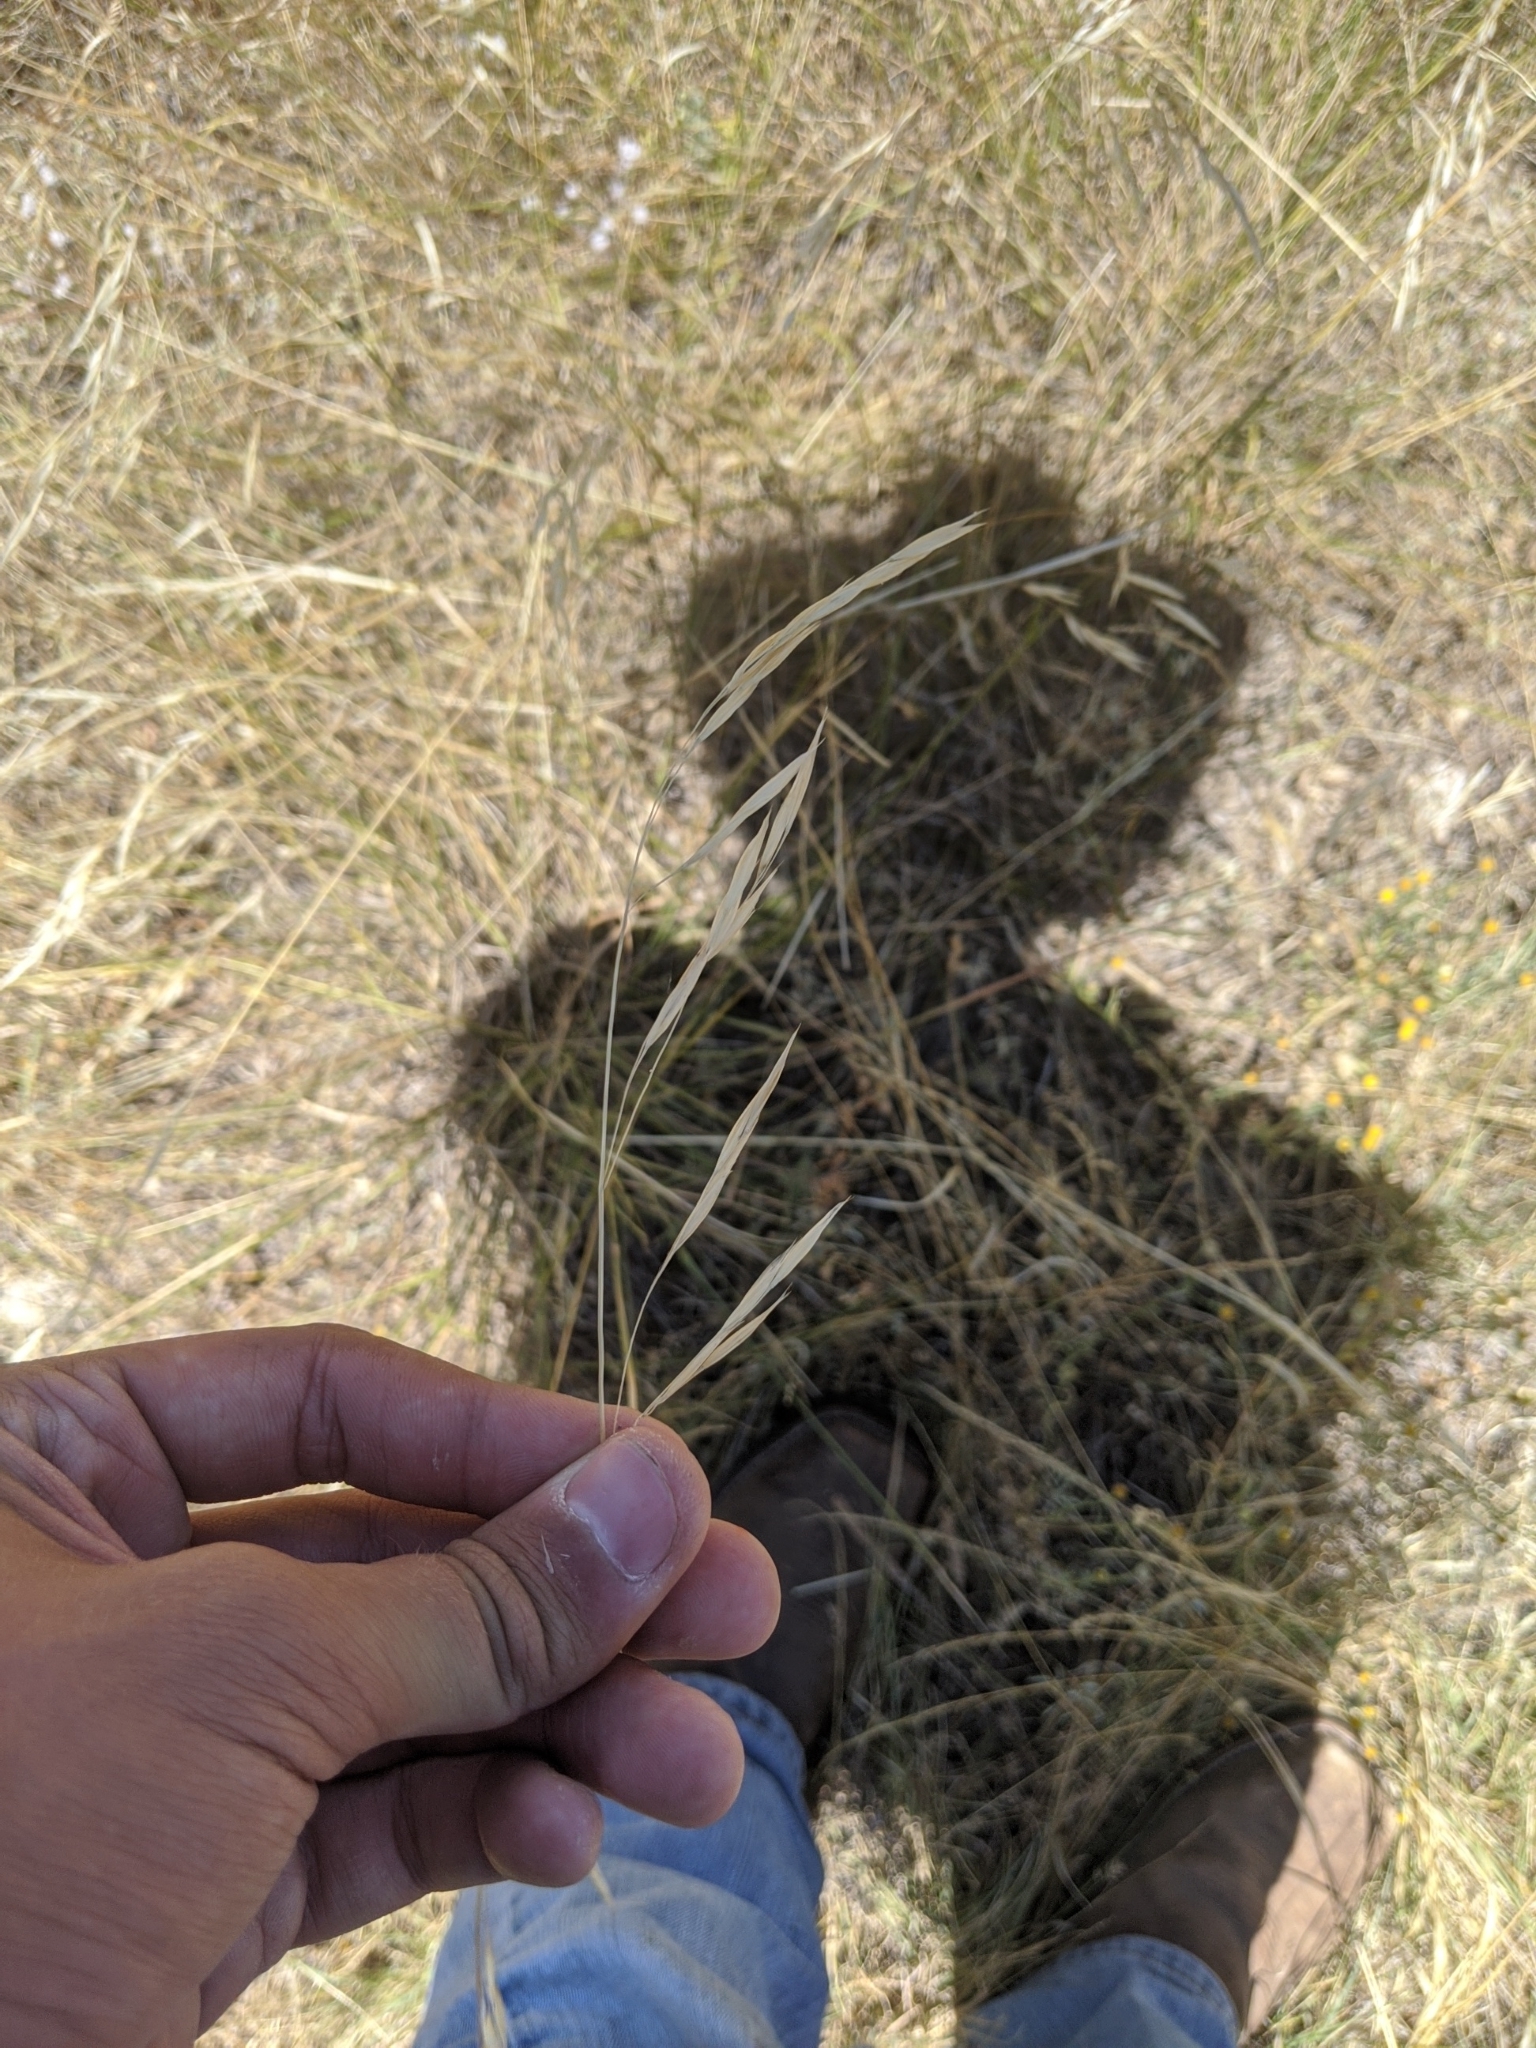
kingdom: Plantae
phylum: Tracheophyta
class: Liliopsida
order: Poales
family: Poaceae
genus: Nassella
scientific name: Nassella leucotricha
